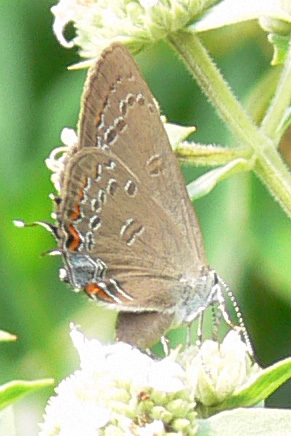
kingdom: Animalia
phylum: Arthropoda
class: Insecta
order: Lepidoptera
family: Lycaenidae
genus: Satyrium
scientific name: Satyrium edwardsii
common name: Edwards' hairstreak
